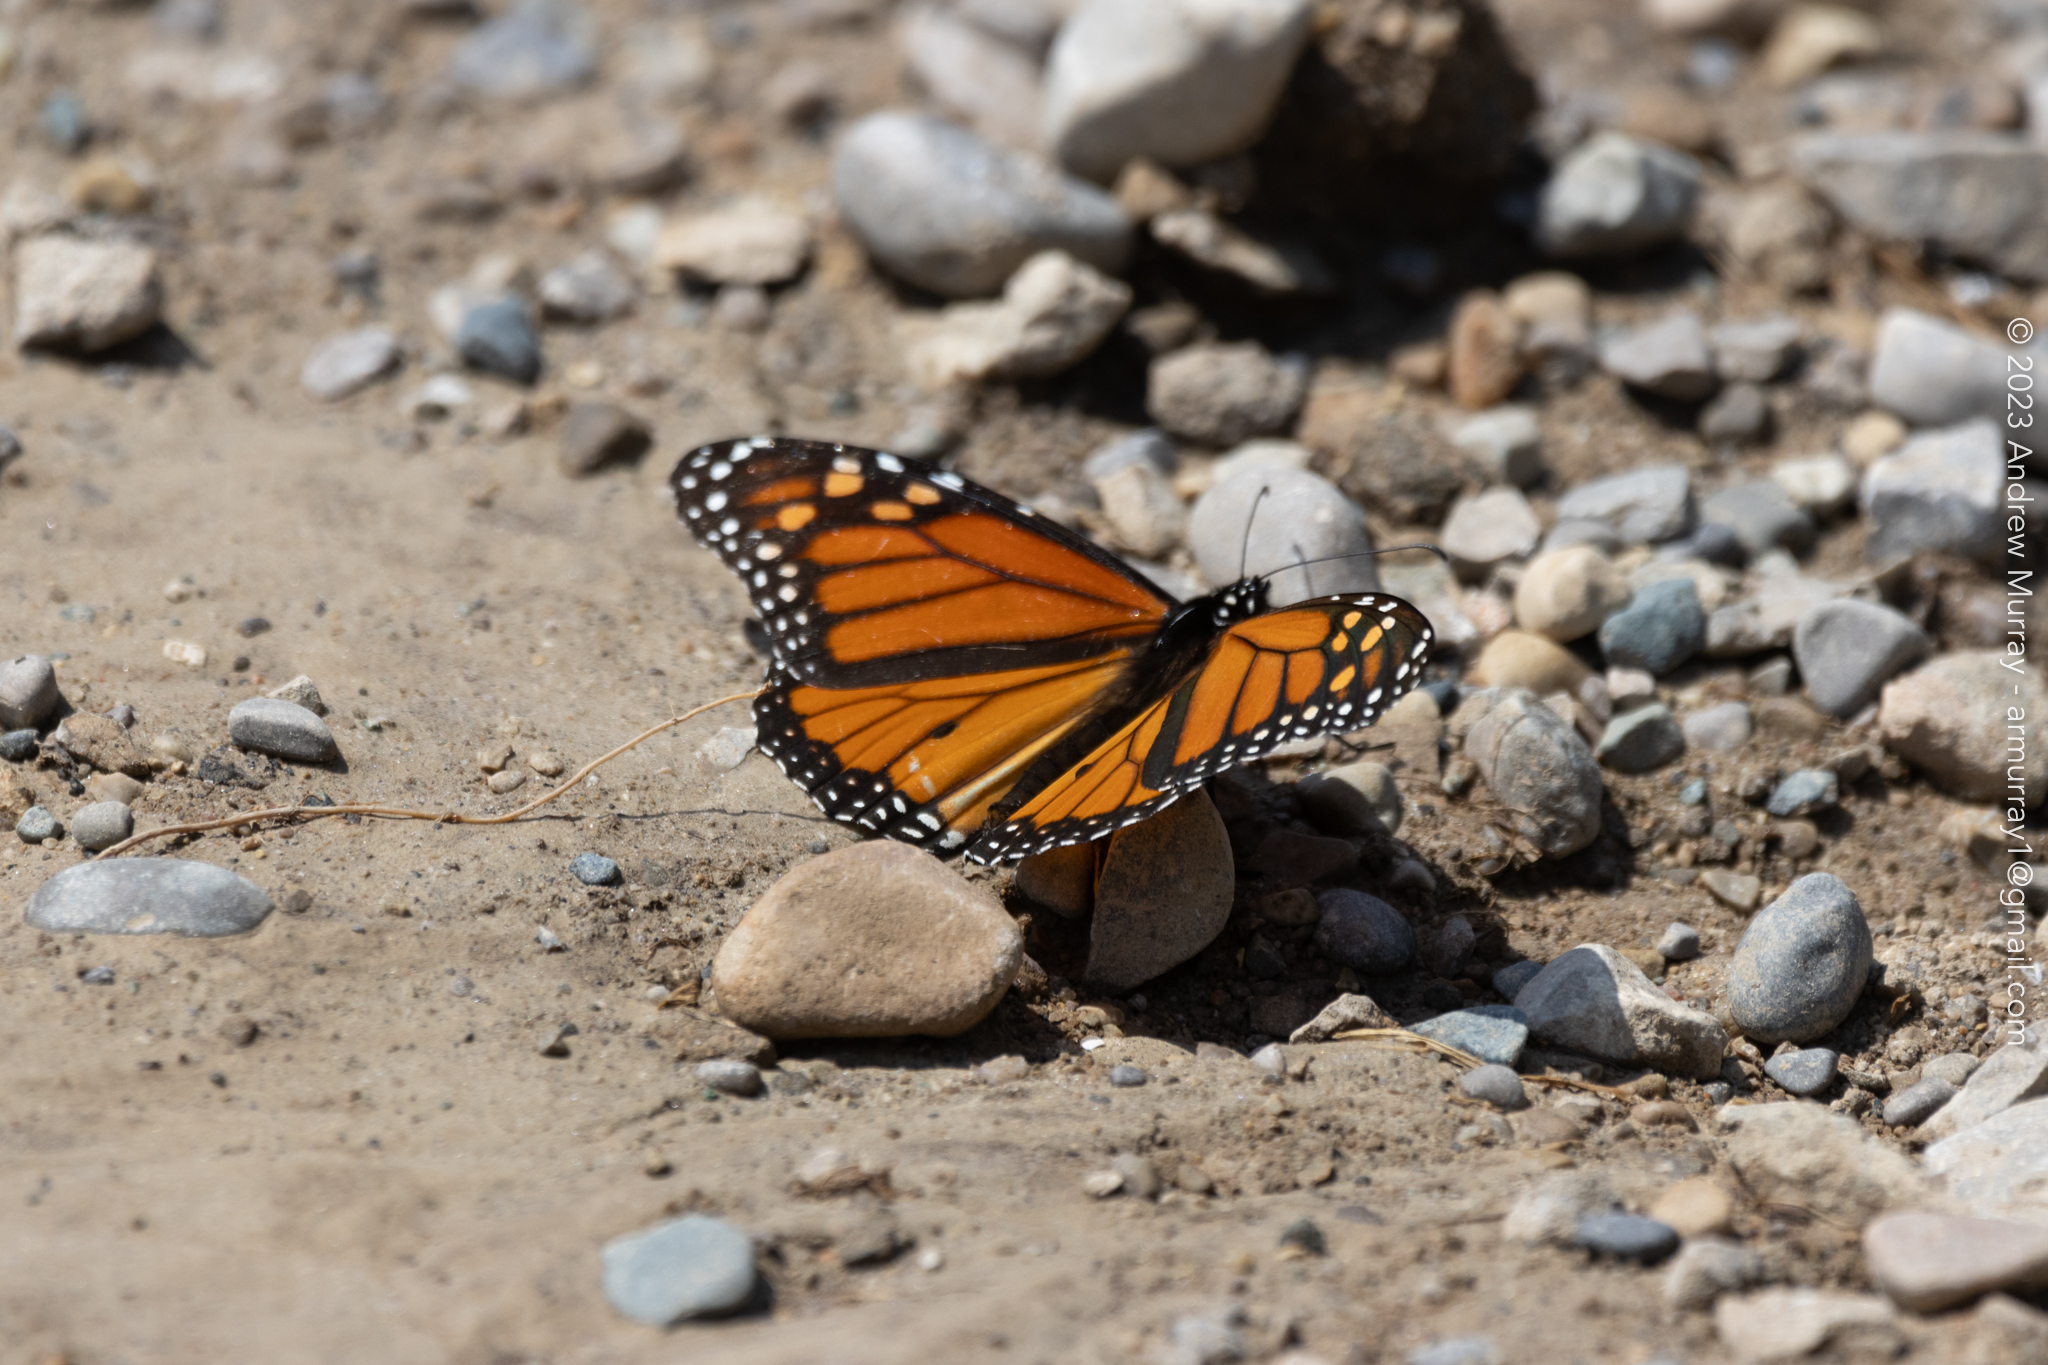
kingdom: Animalia
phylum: Arthropoda
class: Insecta
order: Lepidoptera
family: Nymphalidae
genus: Danaus
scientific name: Danaus plexippus
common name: Monarch
